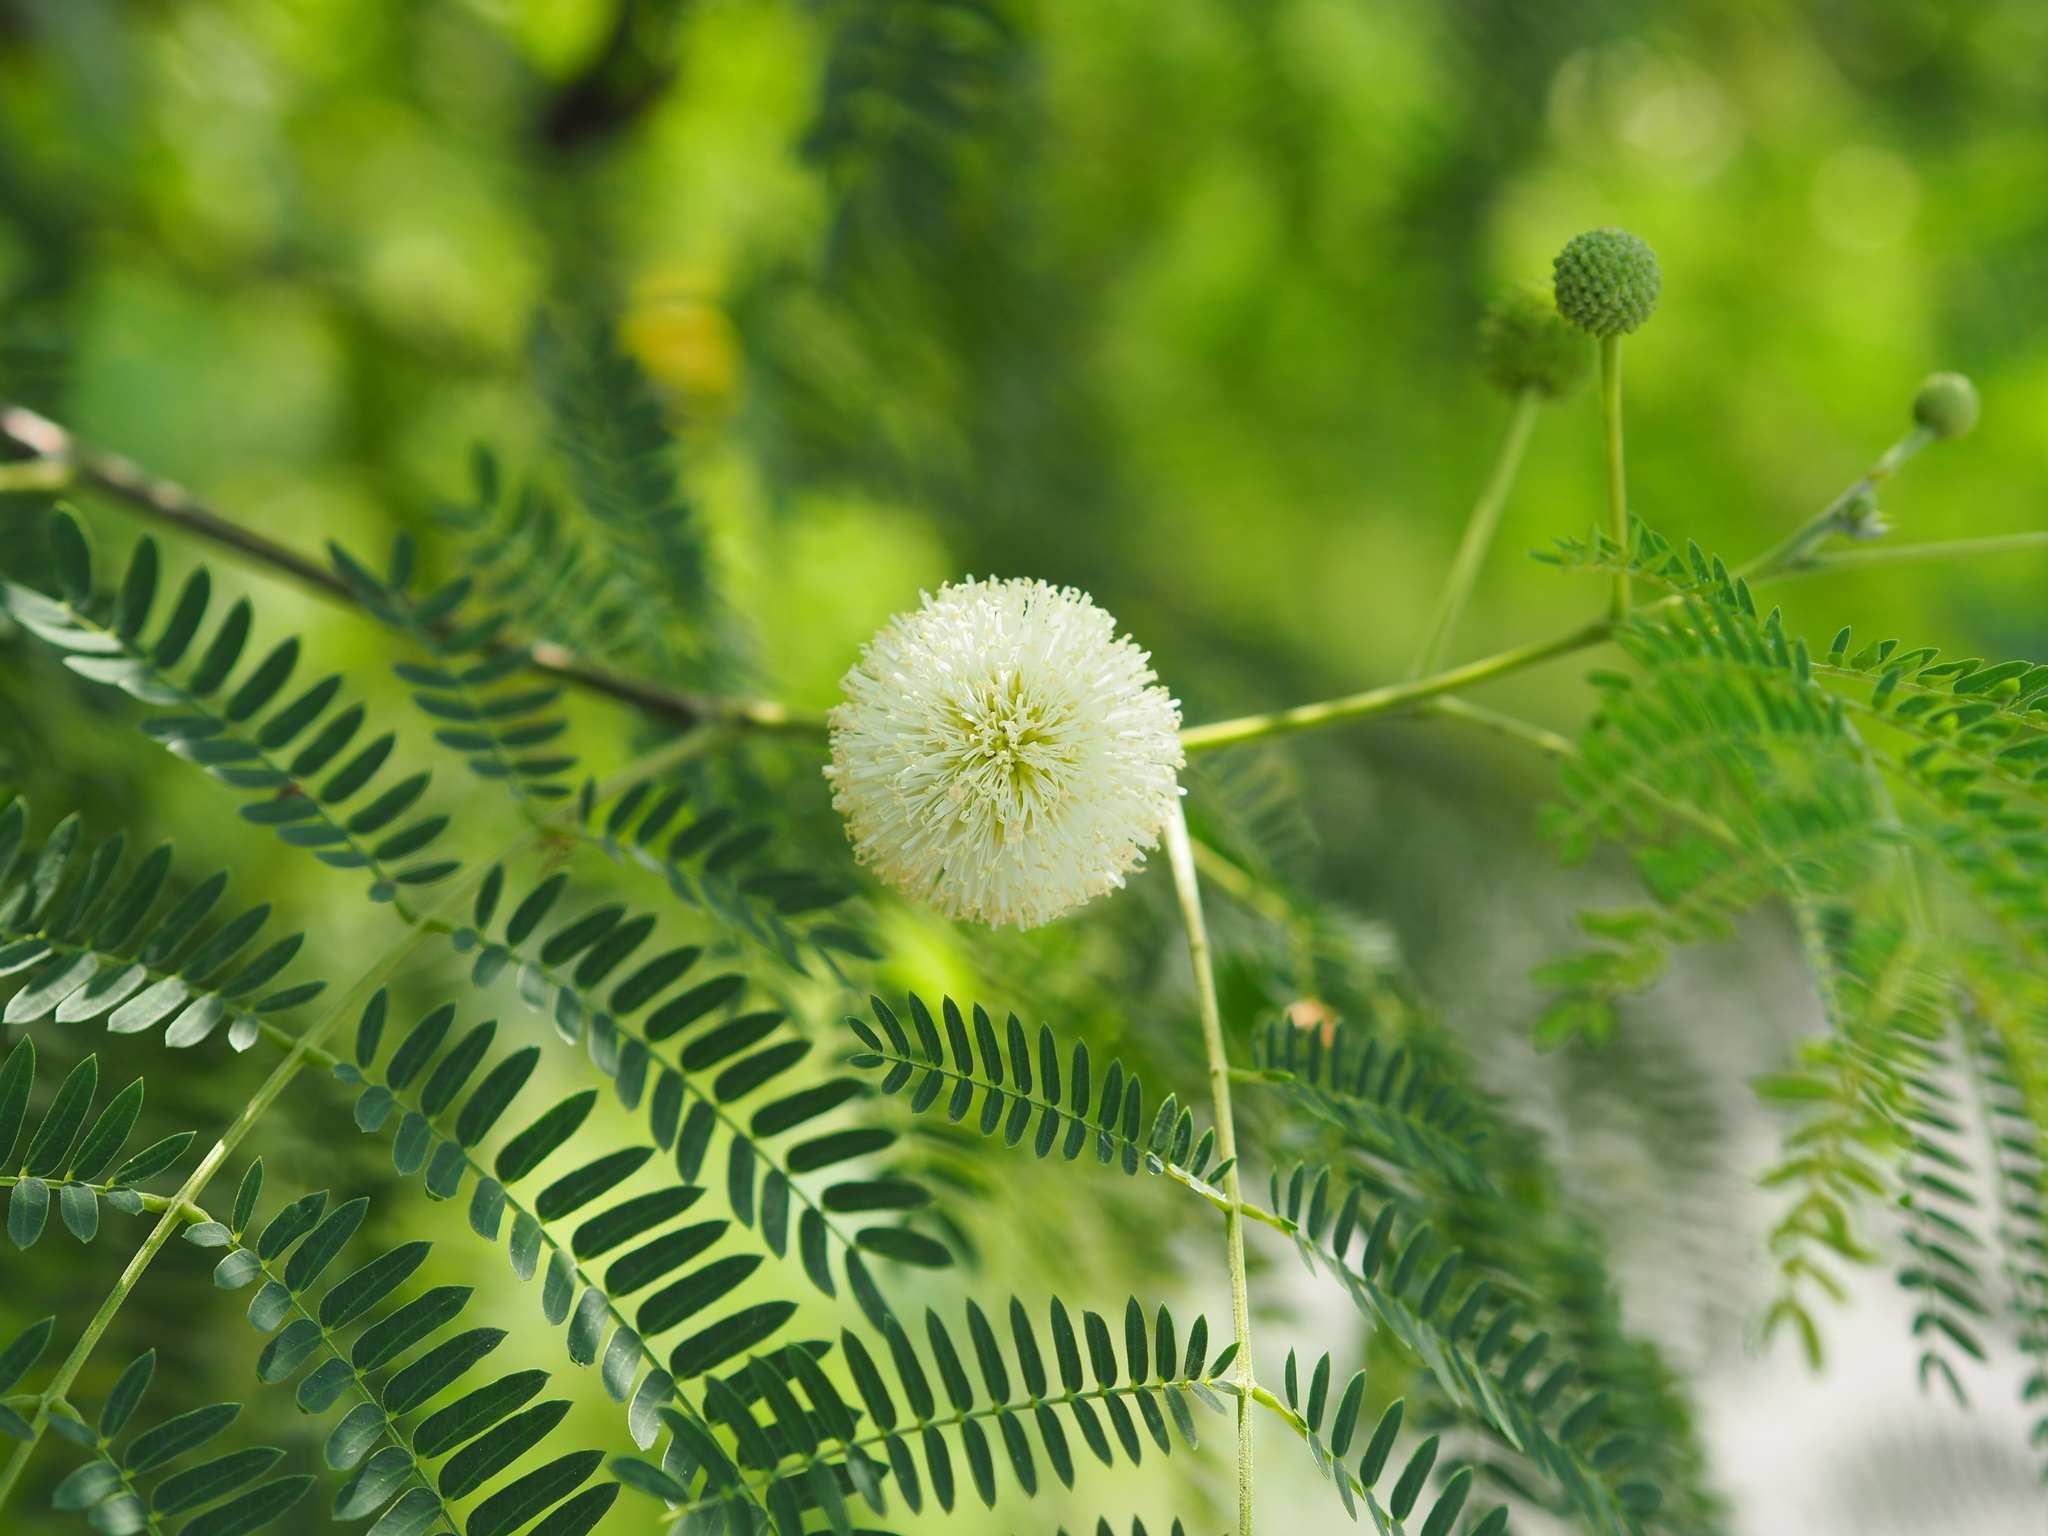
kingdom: Plantae
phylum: Tracheophyta
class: Magnoliopsida
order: Fabales
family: Fabaceae
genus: Leucaena
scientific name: Leucaena leucocephala
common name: White leadtree
